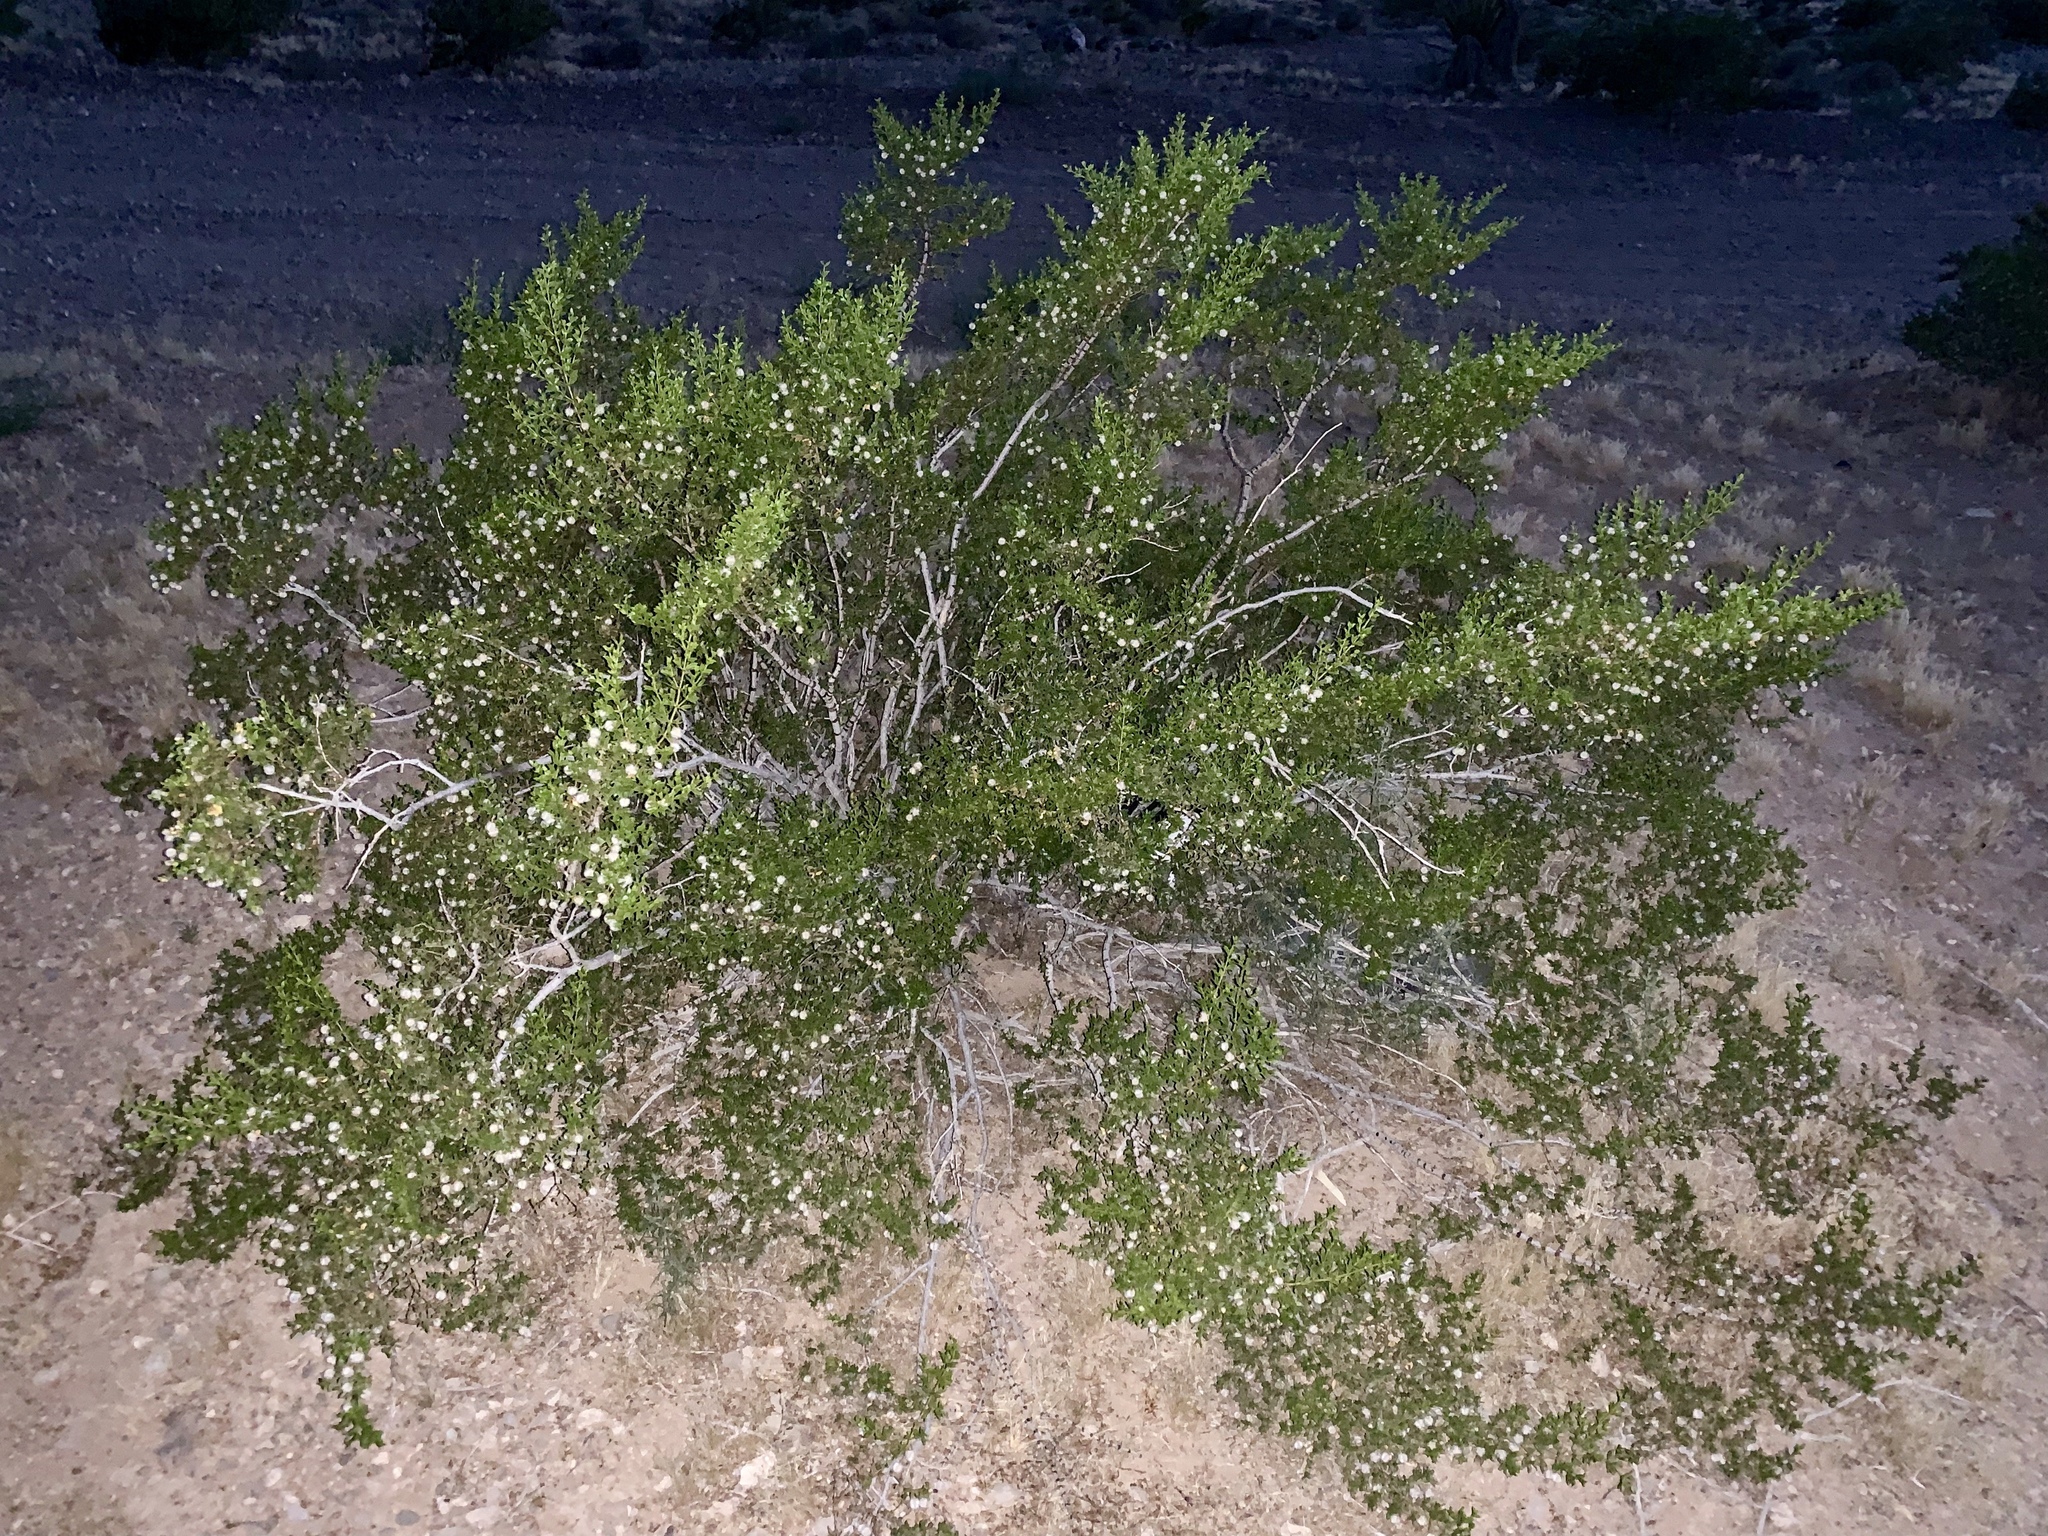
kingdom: Plantae
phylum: Tracheophyta
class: Magnoliopsida
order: Zygophyllales
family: Zygophyllaceae
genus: Larrea
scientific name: Larrea tridentata
